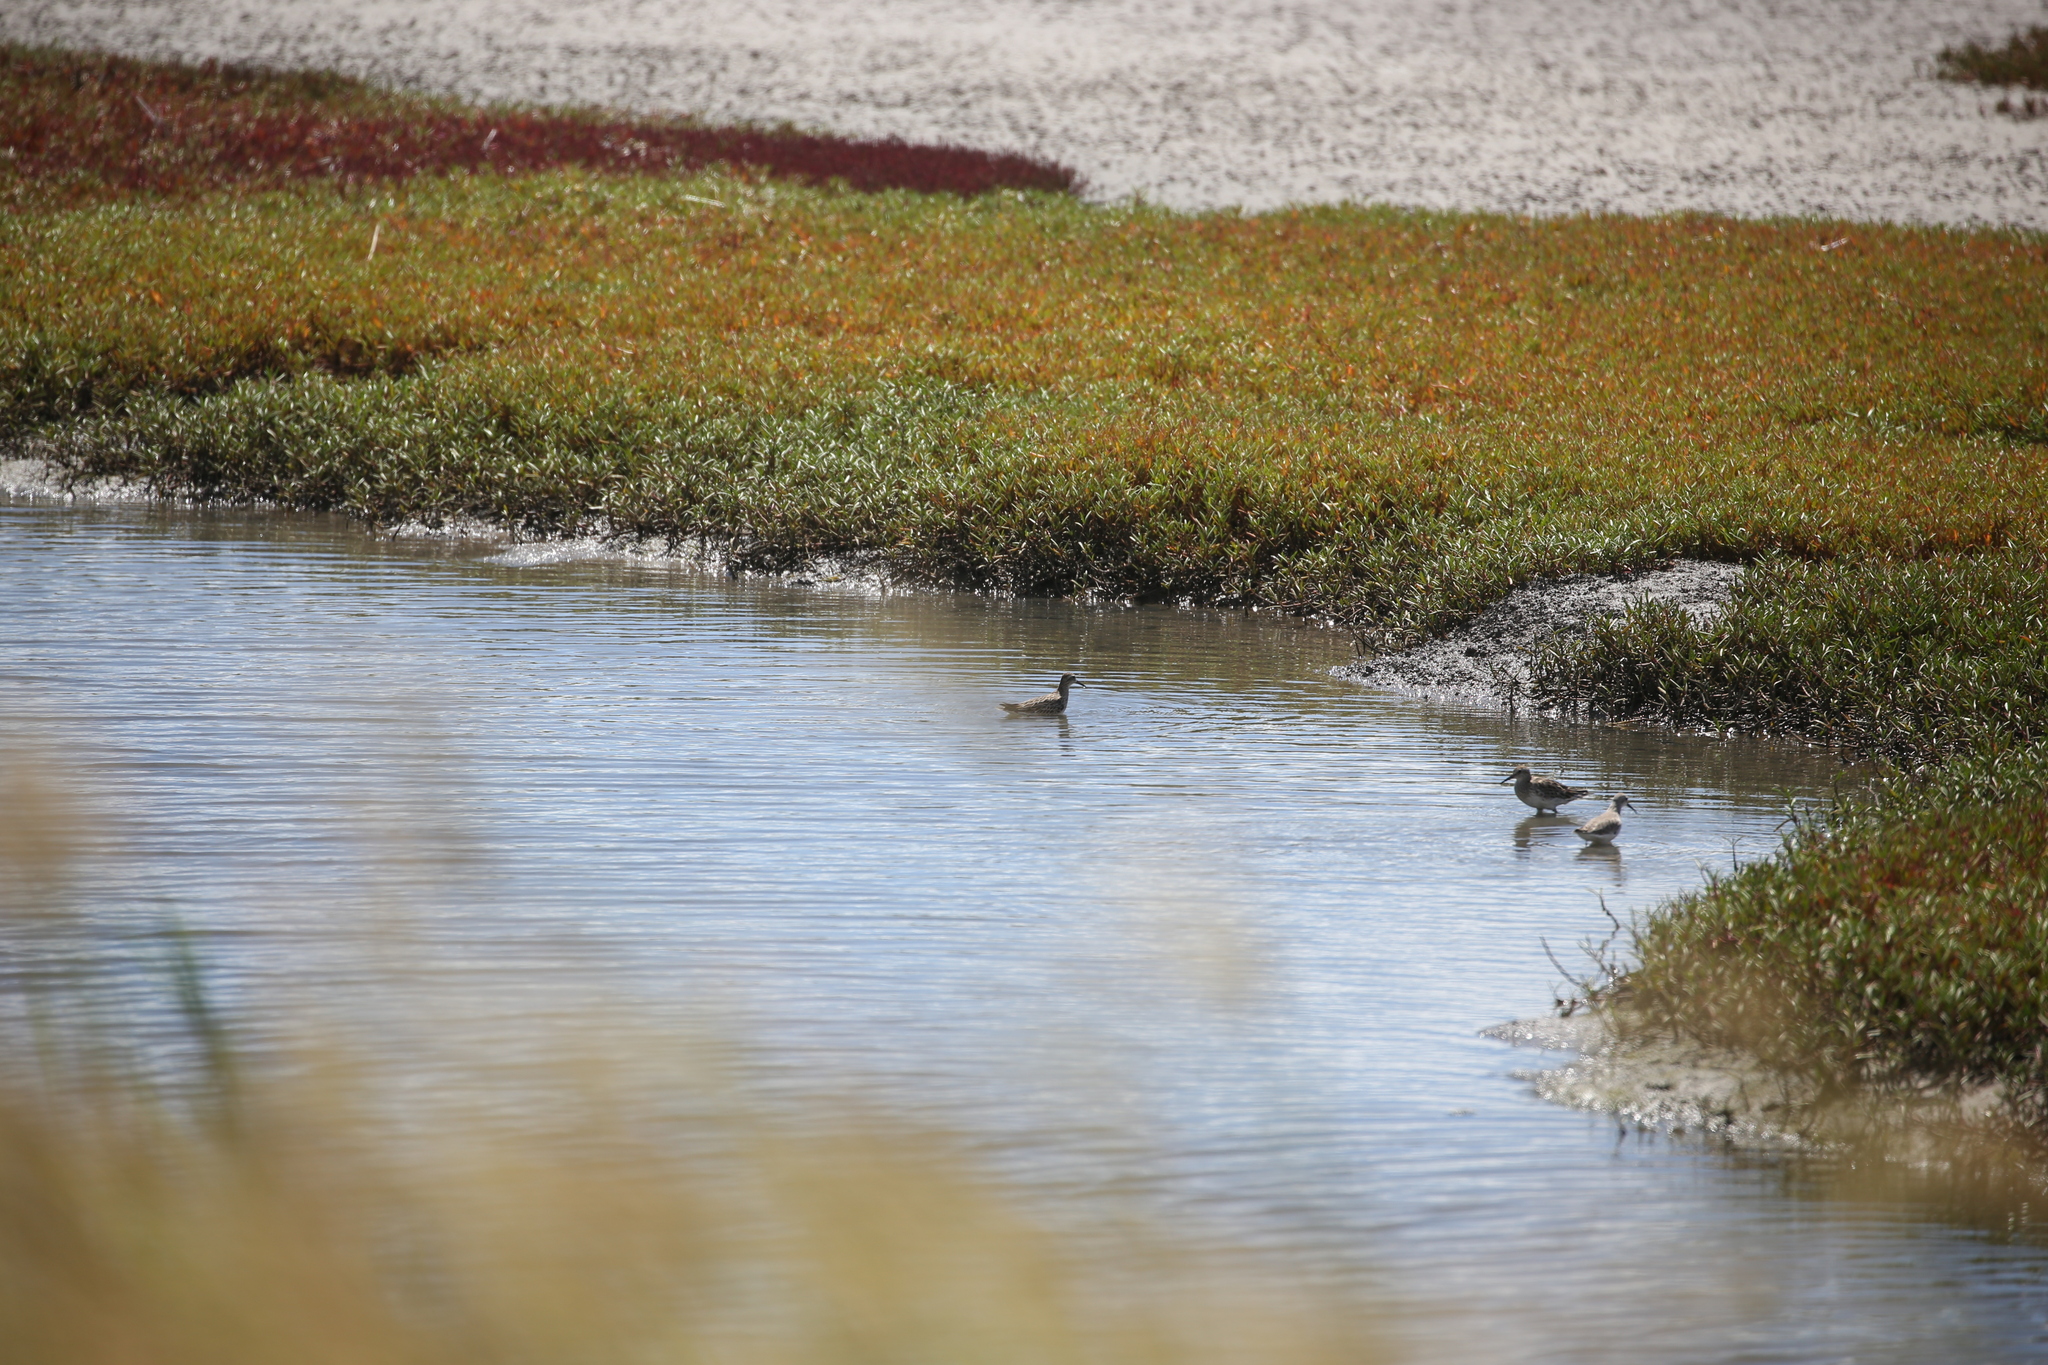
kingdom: Animalia
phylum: Chordata
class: Aves
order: Charadriiformes
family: Scolopacidae
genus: Calidris
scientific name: Calidris acuminata
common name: Sharp-tailed sandpiper
